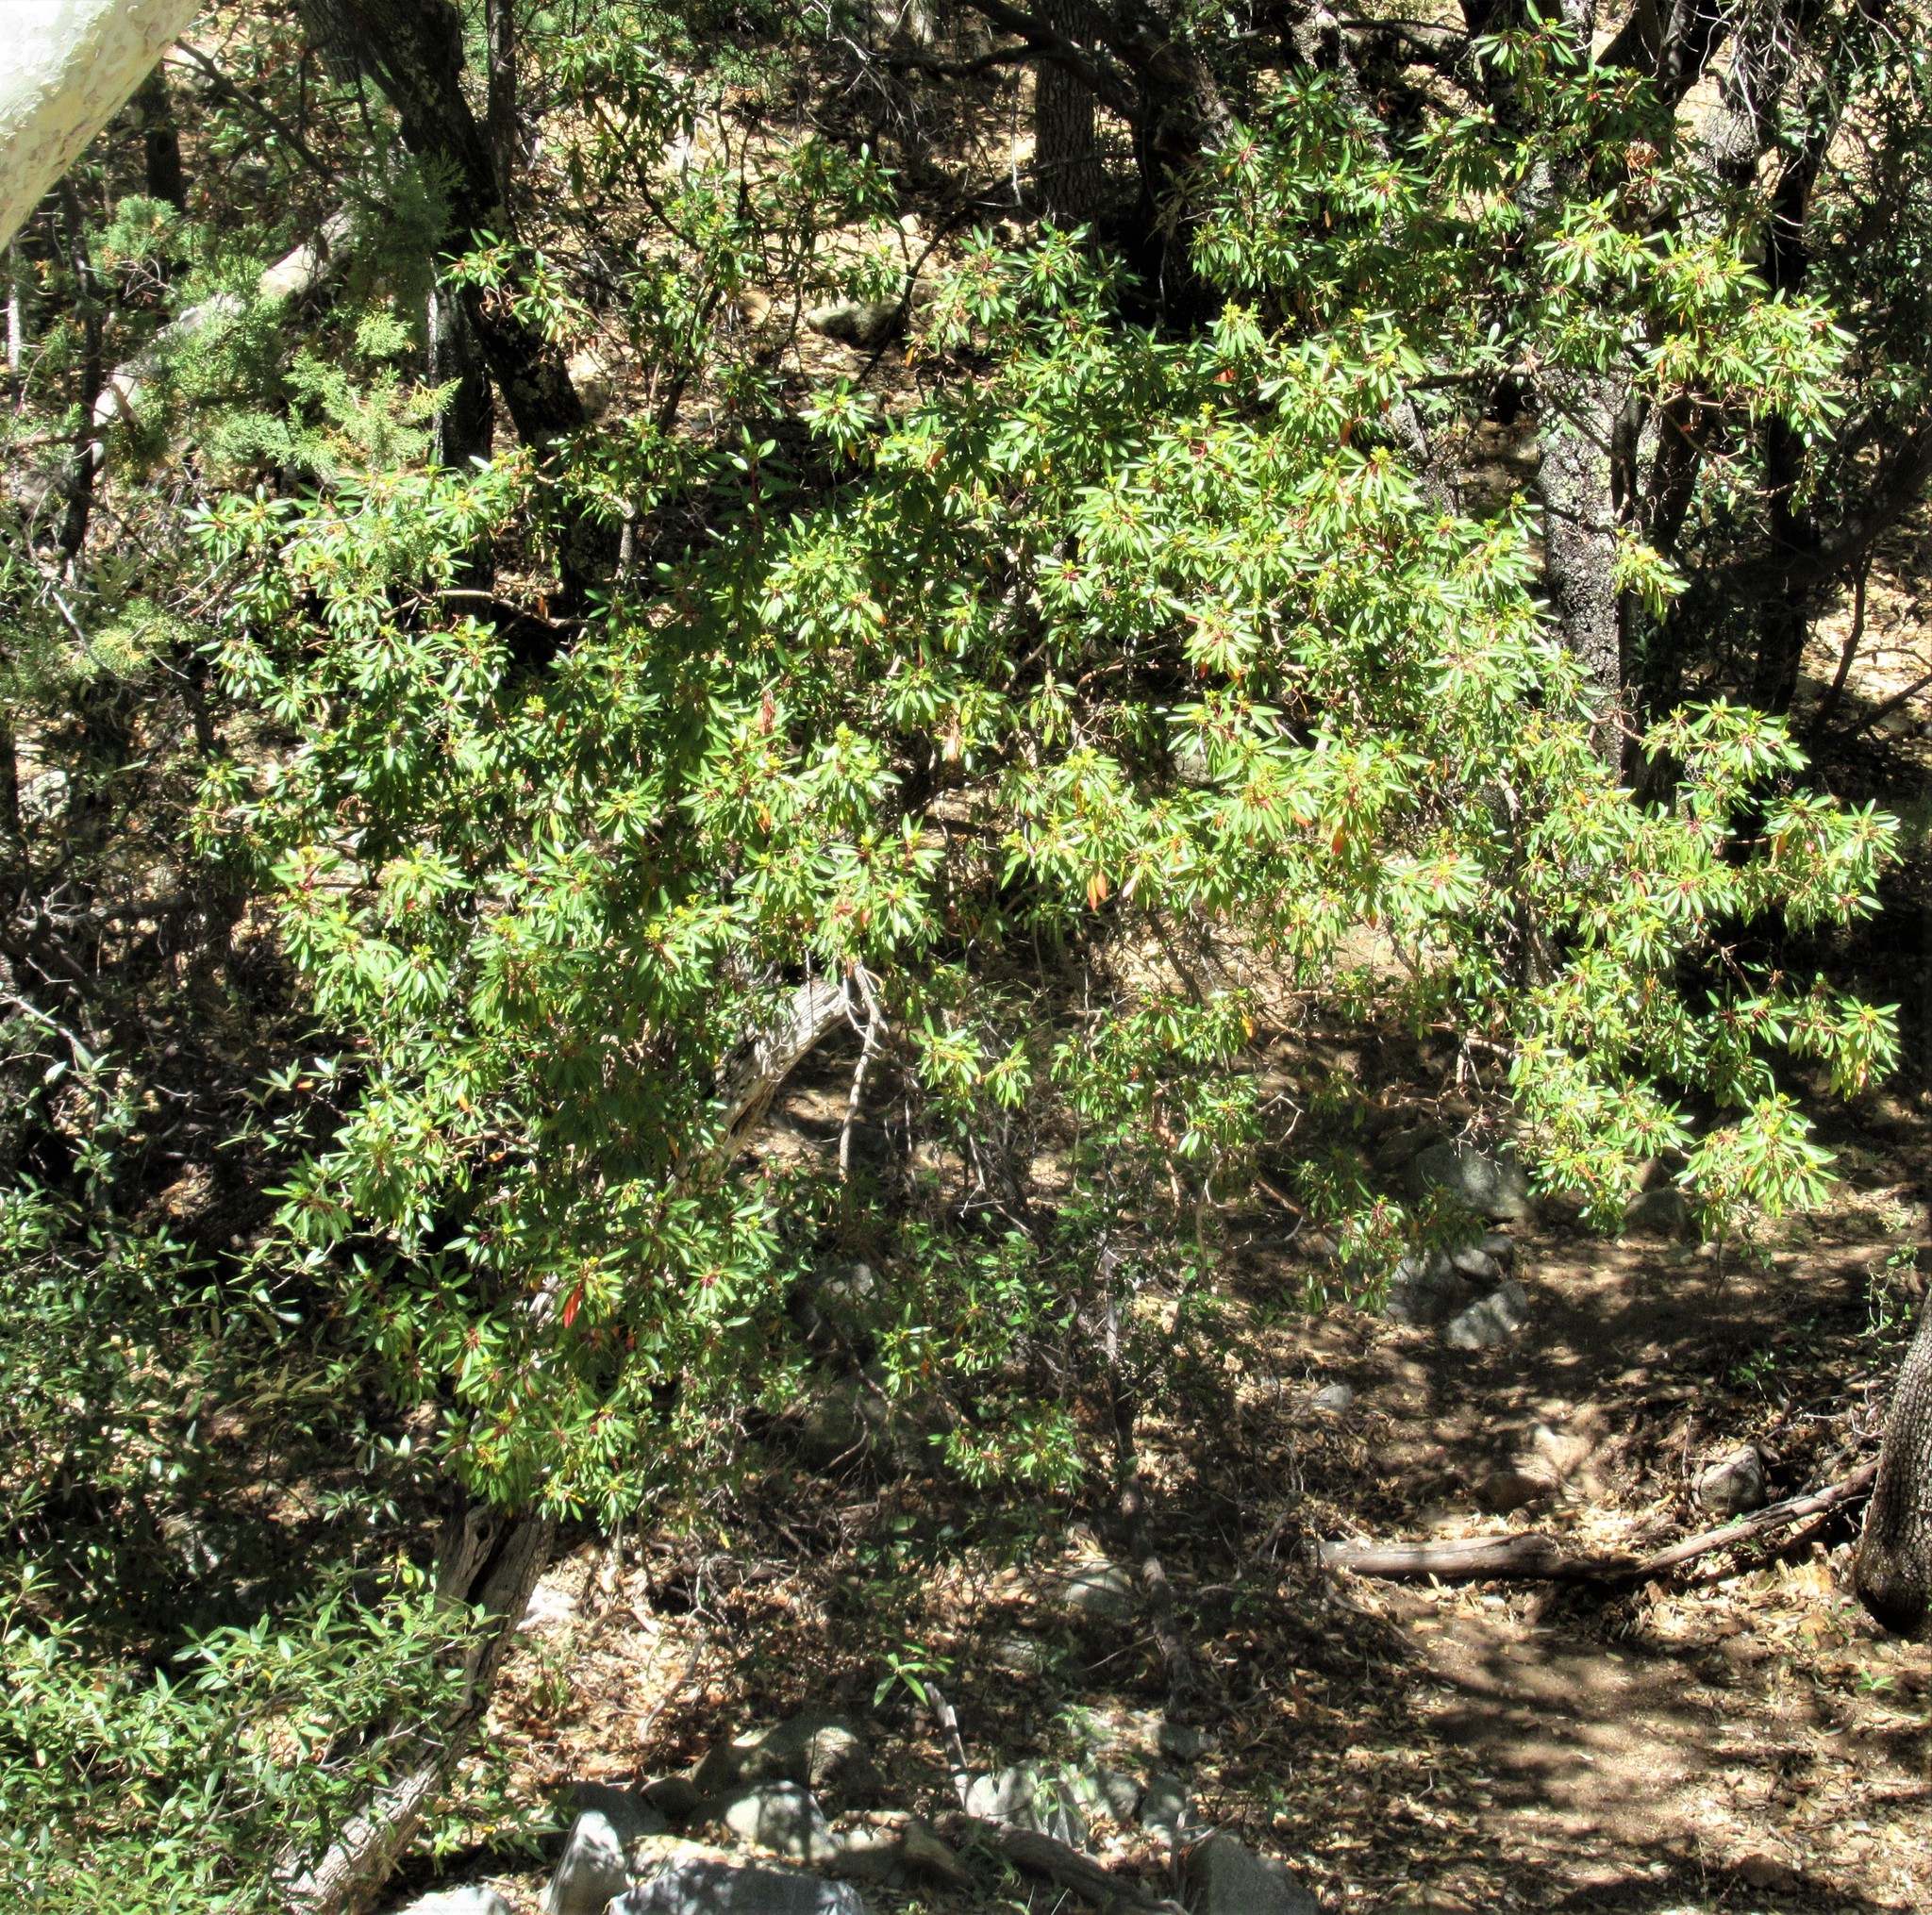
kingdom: Plantae
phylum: Tracheophyta
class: Magnoliopsida
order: Ericales
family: Ericaceae
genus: Arbutus
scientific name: Arbutus arizonica
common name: Arizona madrone
